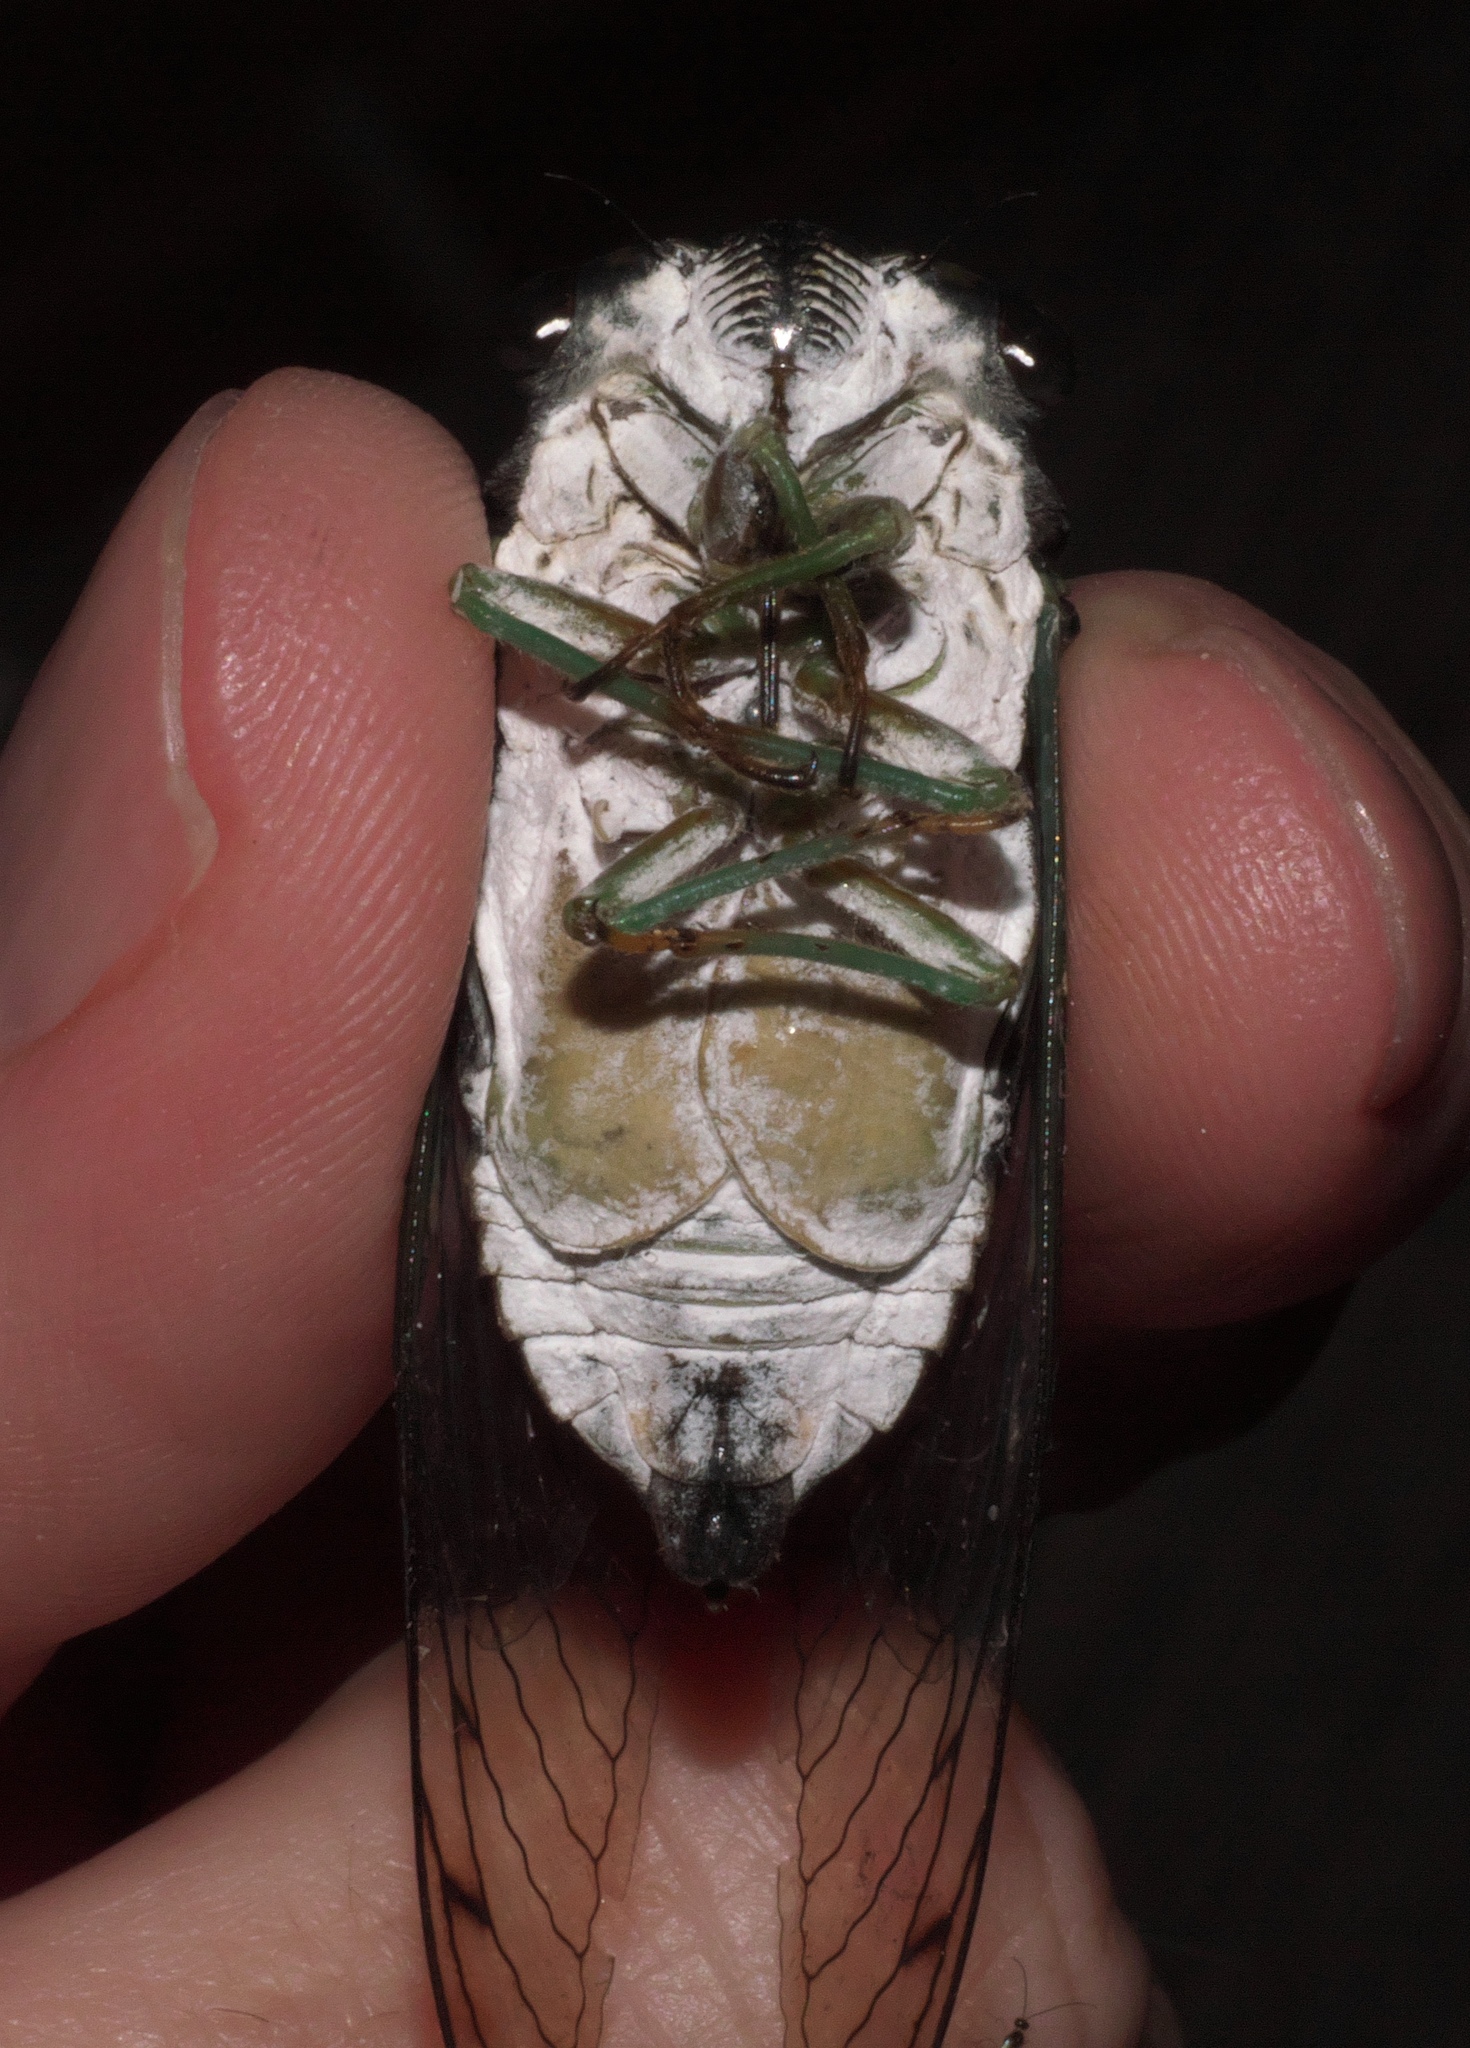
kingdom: Animalia
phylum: Arthropoda
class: Insecta
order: Hemiptera
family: Cicadidae
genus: Neotibicen
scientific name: Neotibicen tibicen
